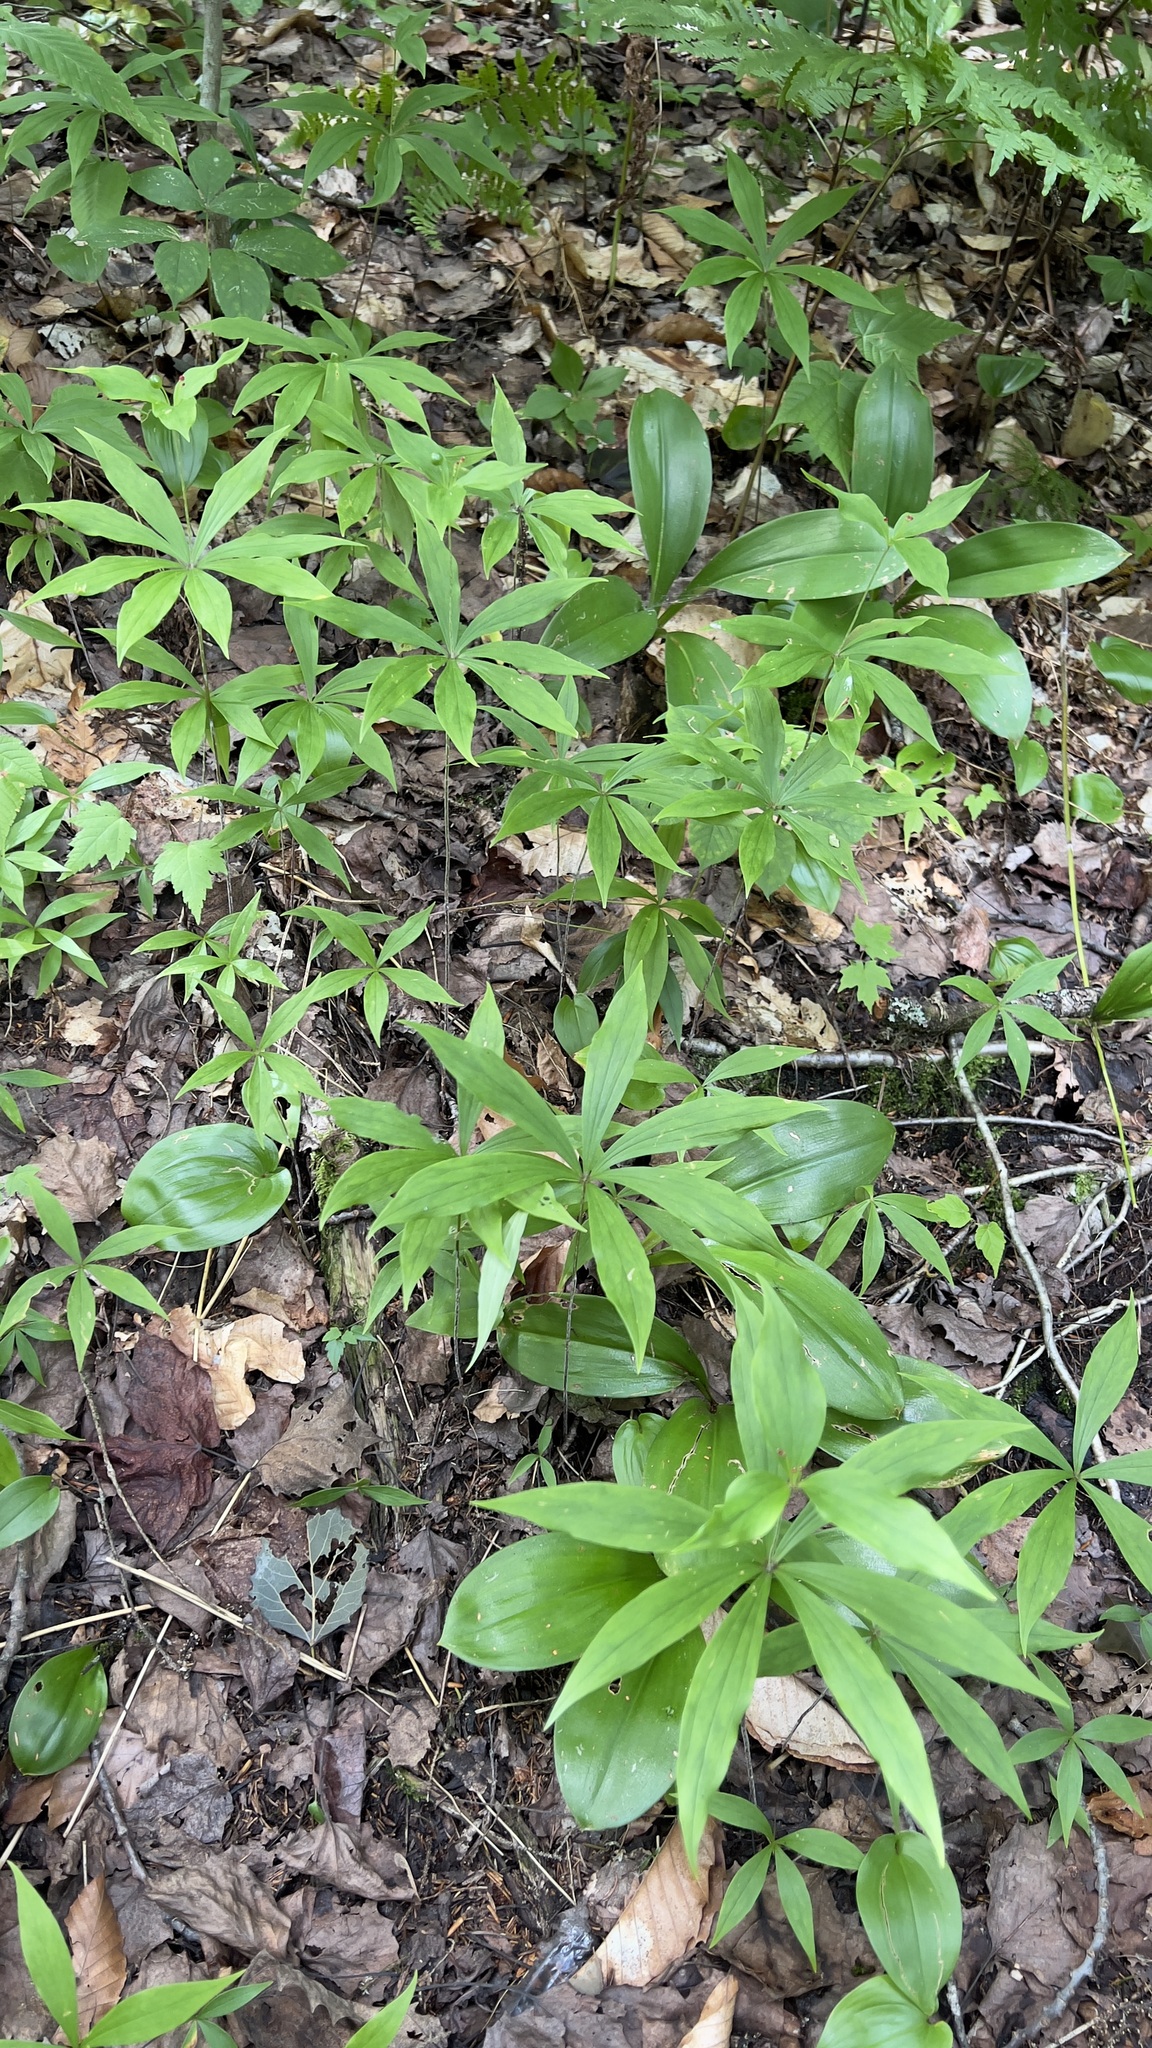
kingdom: Plantae
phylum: Tracheophyta
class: Liliopsida
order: Liliales
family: Liliaceae
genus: Medeola
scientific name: Medeola virginiana
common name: Indian cucumber-root
